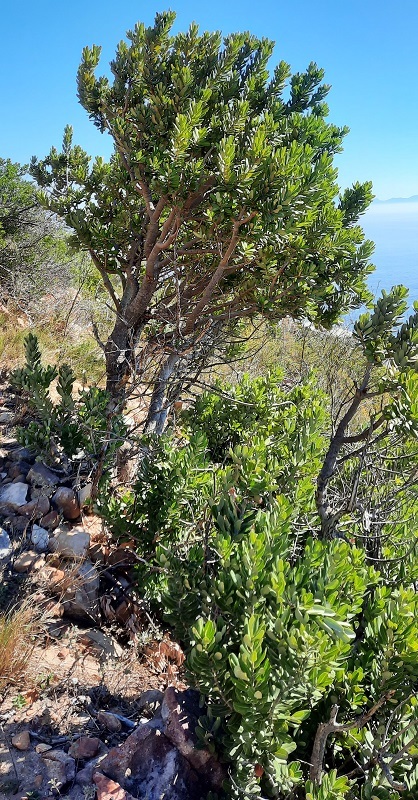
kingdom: Plantae
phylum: Tracheophyta
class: Magnoliopsida
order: Sapindales
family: Anacardiaceae
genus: Heeria
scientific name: Heeria argentea
